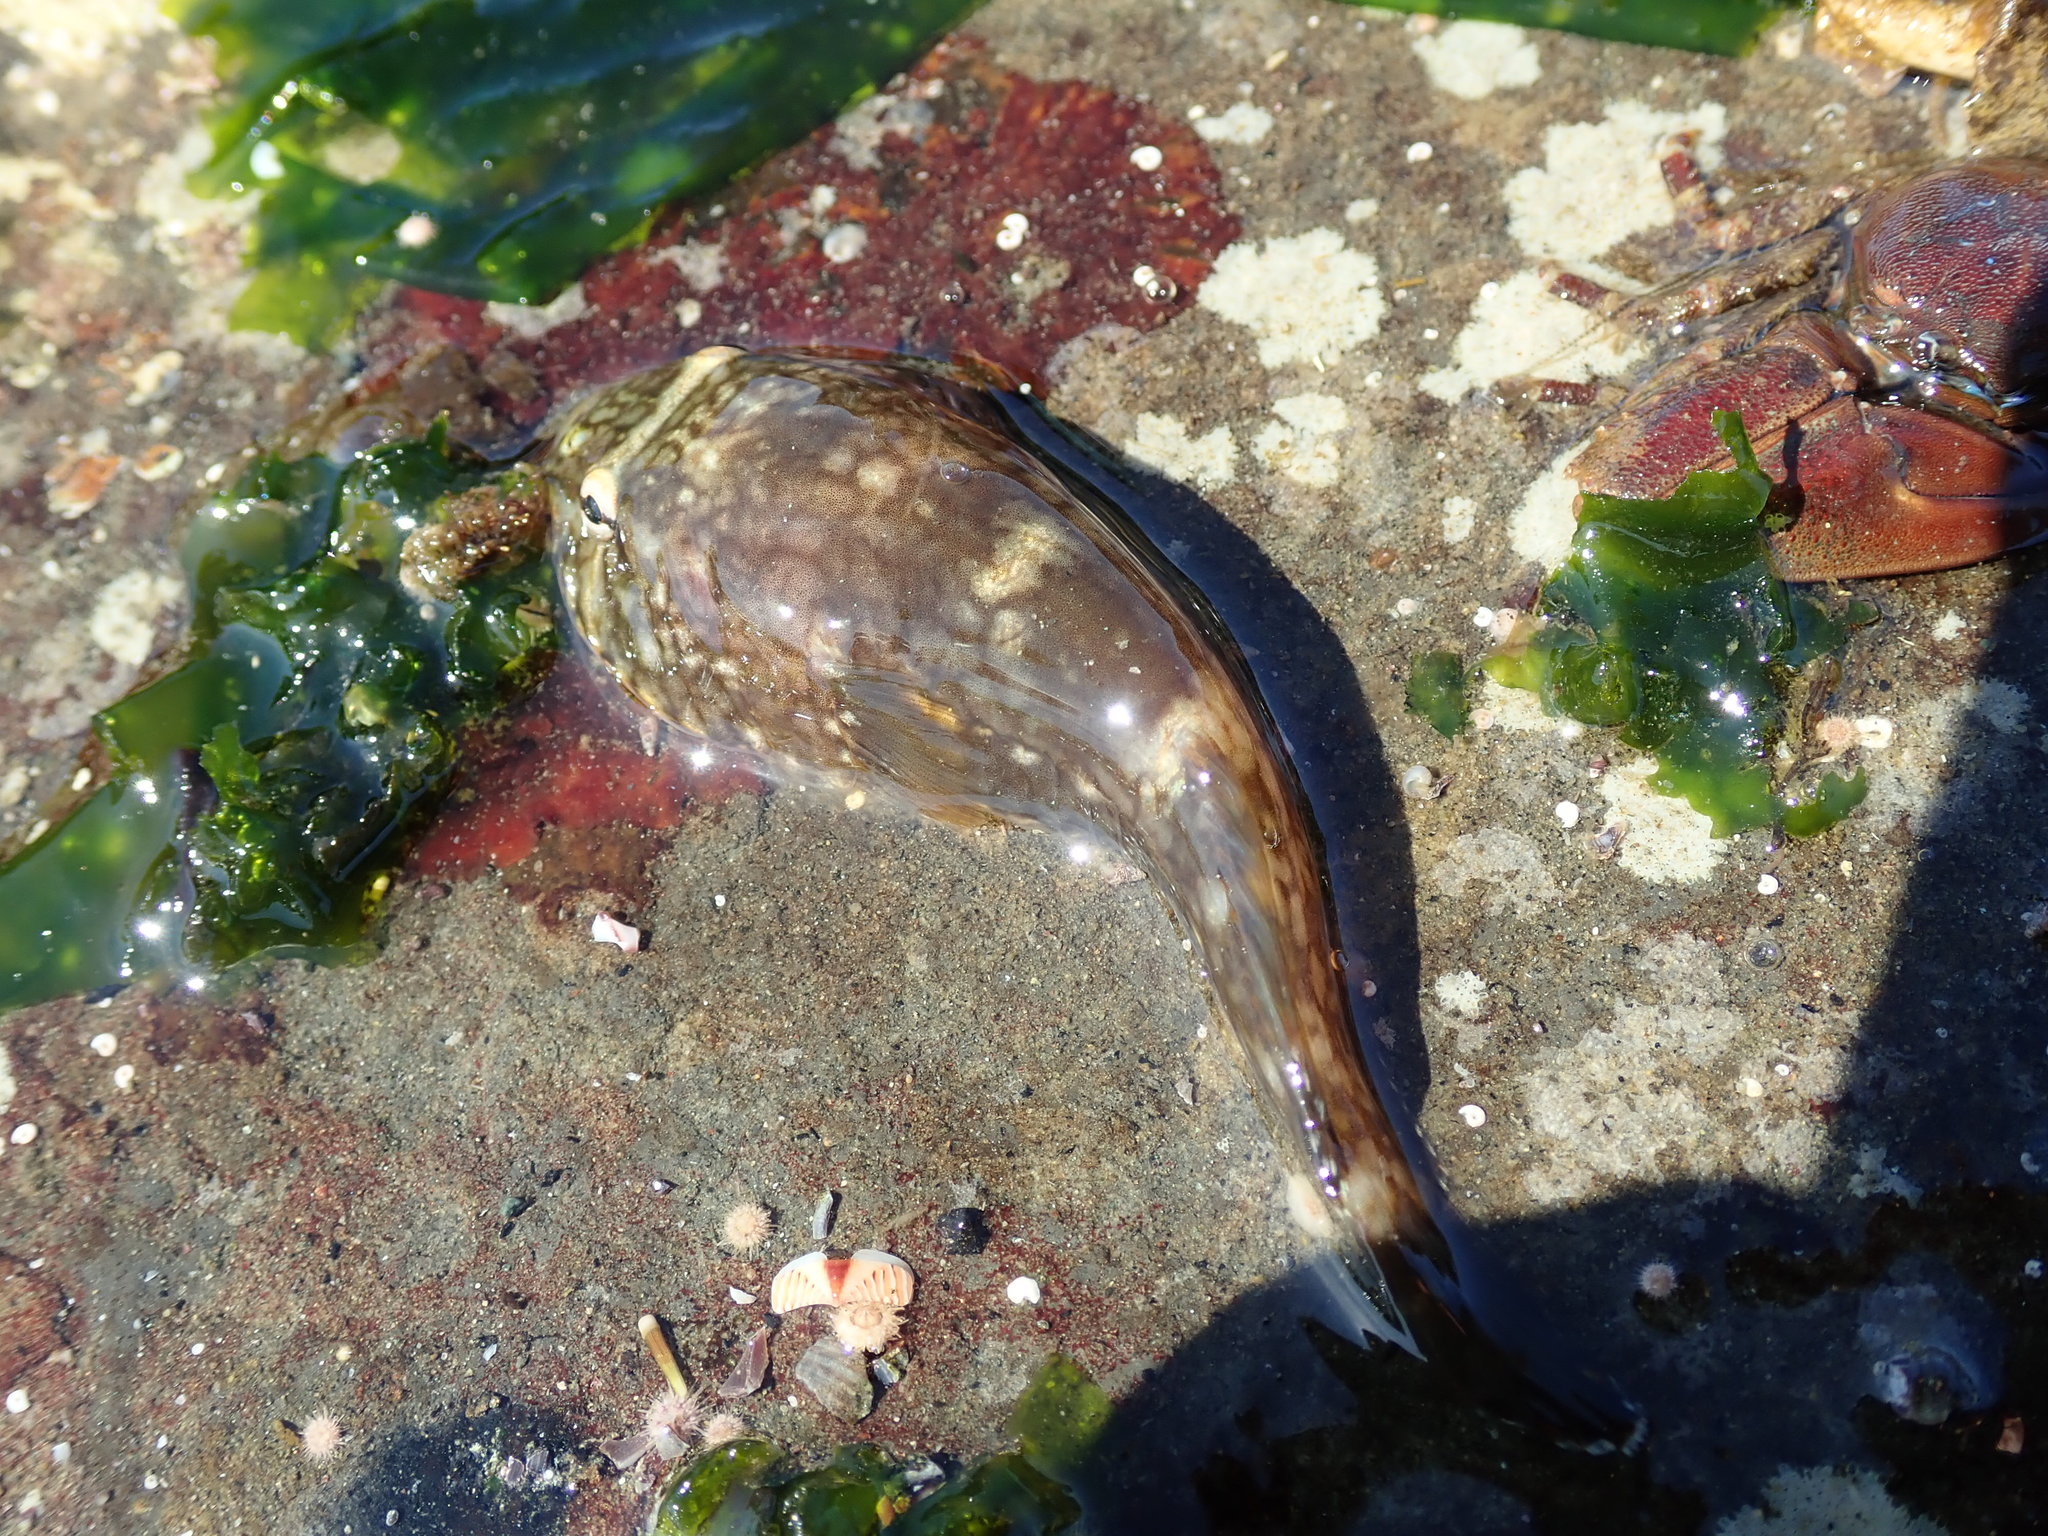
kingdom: Animalia
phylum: Chordata
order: Gobiesociformes
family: Gobiesocidae
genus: Gobiesox
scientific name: Gobiesox maeandricus
